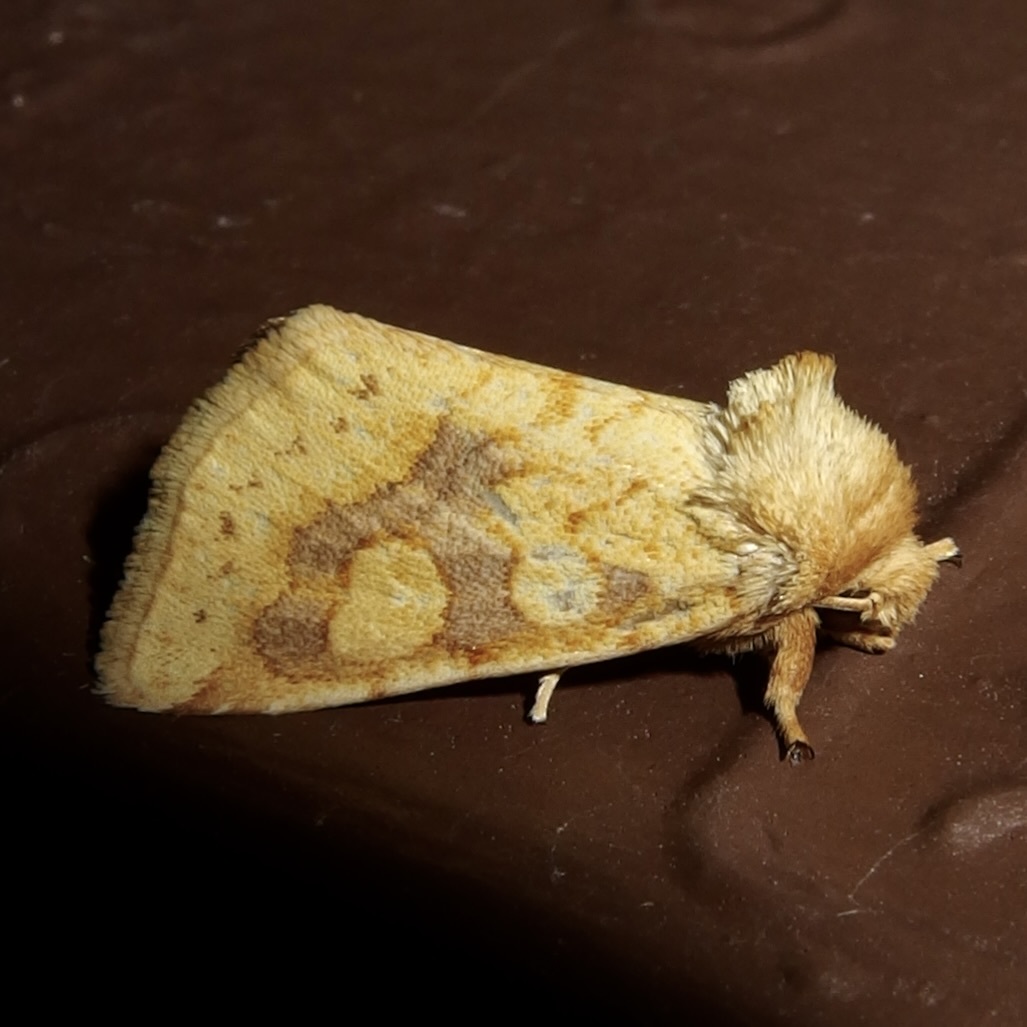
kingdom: Animalia
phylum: Arthropoda
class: Insecta
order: Lepidoptera
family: Noctuidae
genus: Nocloa
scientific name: Nocloa cordova
